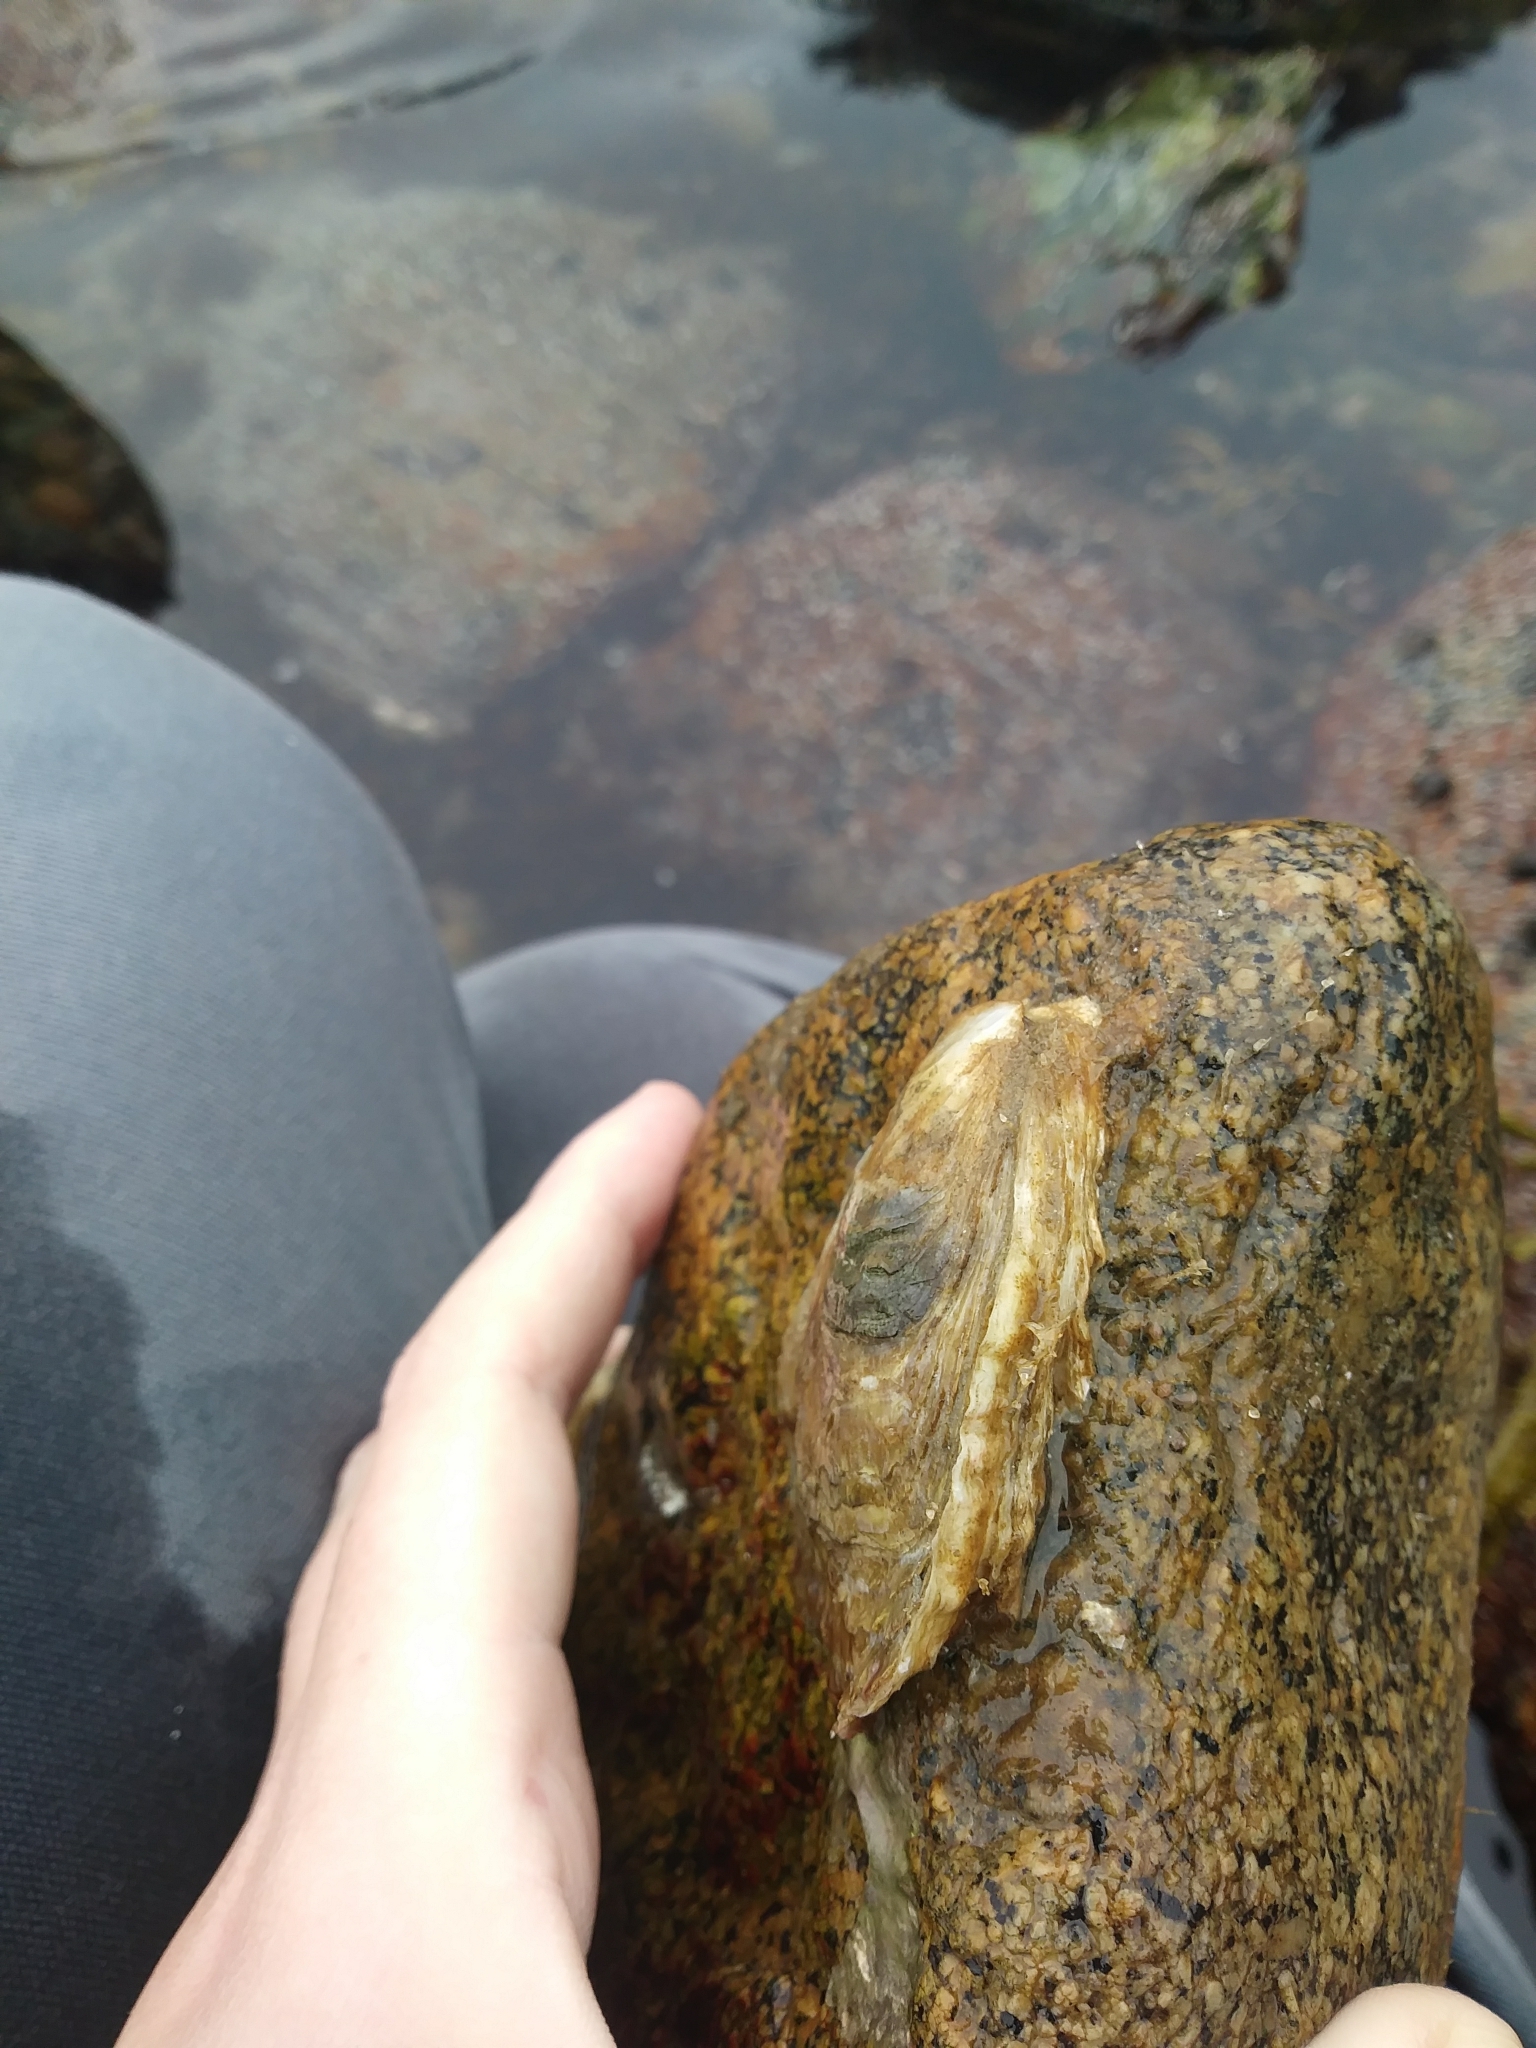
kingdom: Animalia
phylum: Mollusca
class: Bivalvia
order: Ostreida
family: Ostreidae
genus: Crassostrea
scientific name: Crassostrea virginica
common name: American oyster
